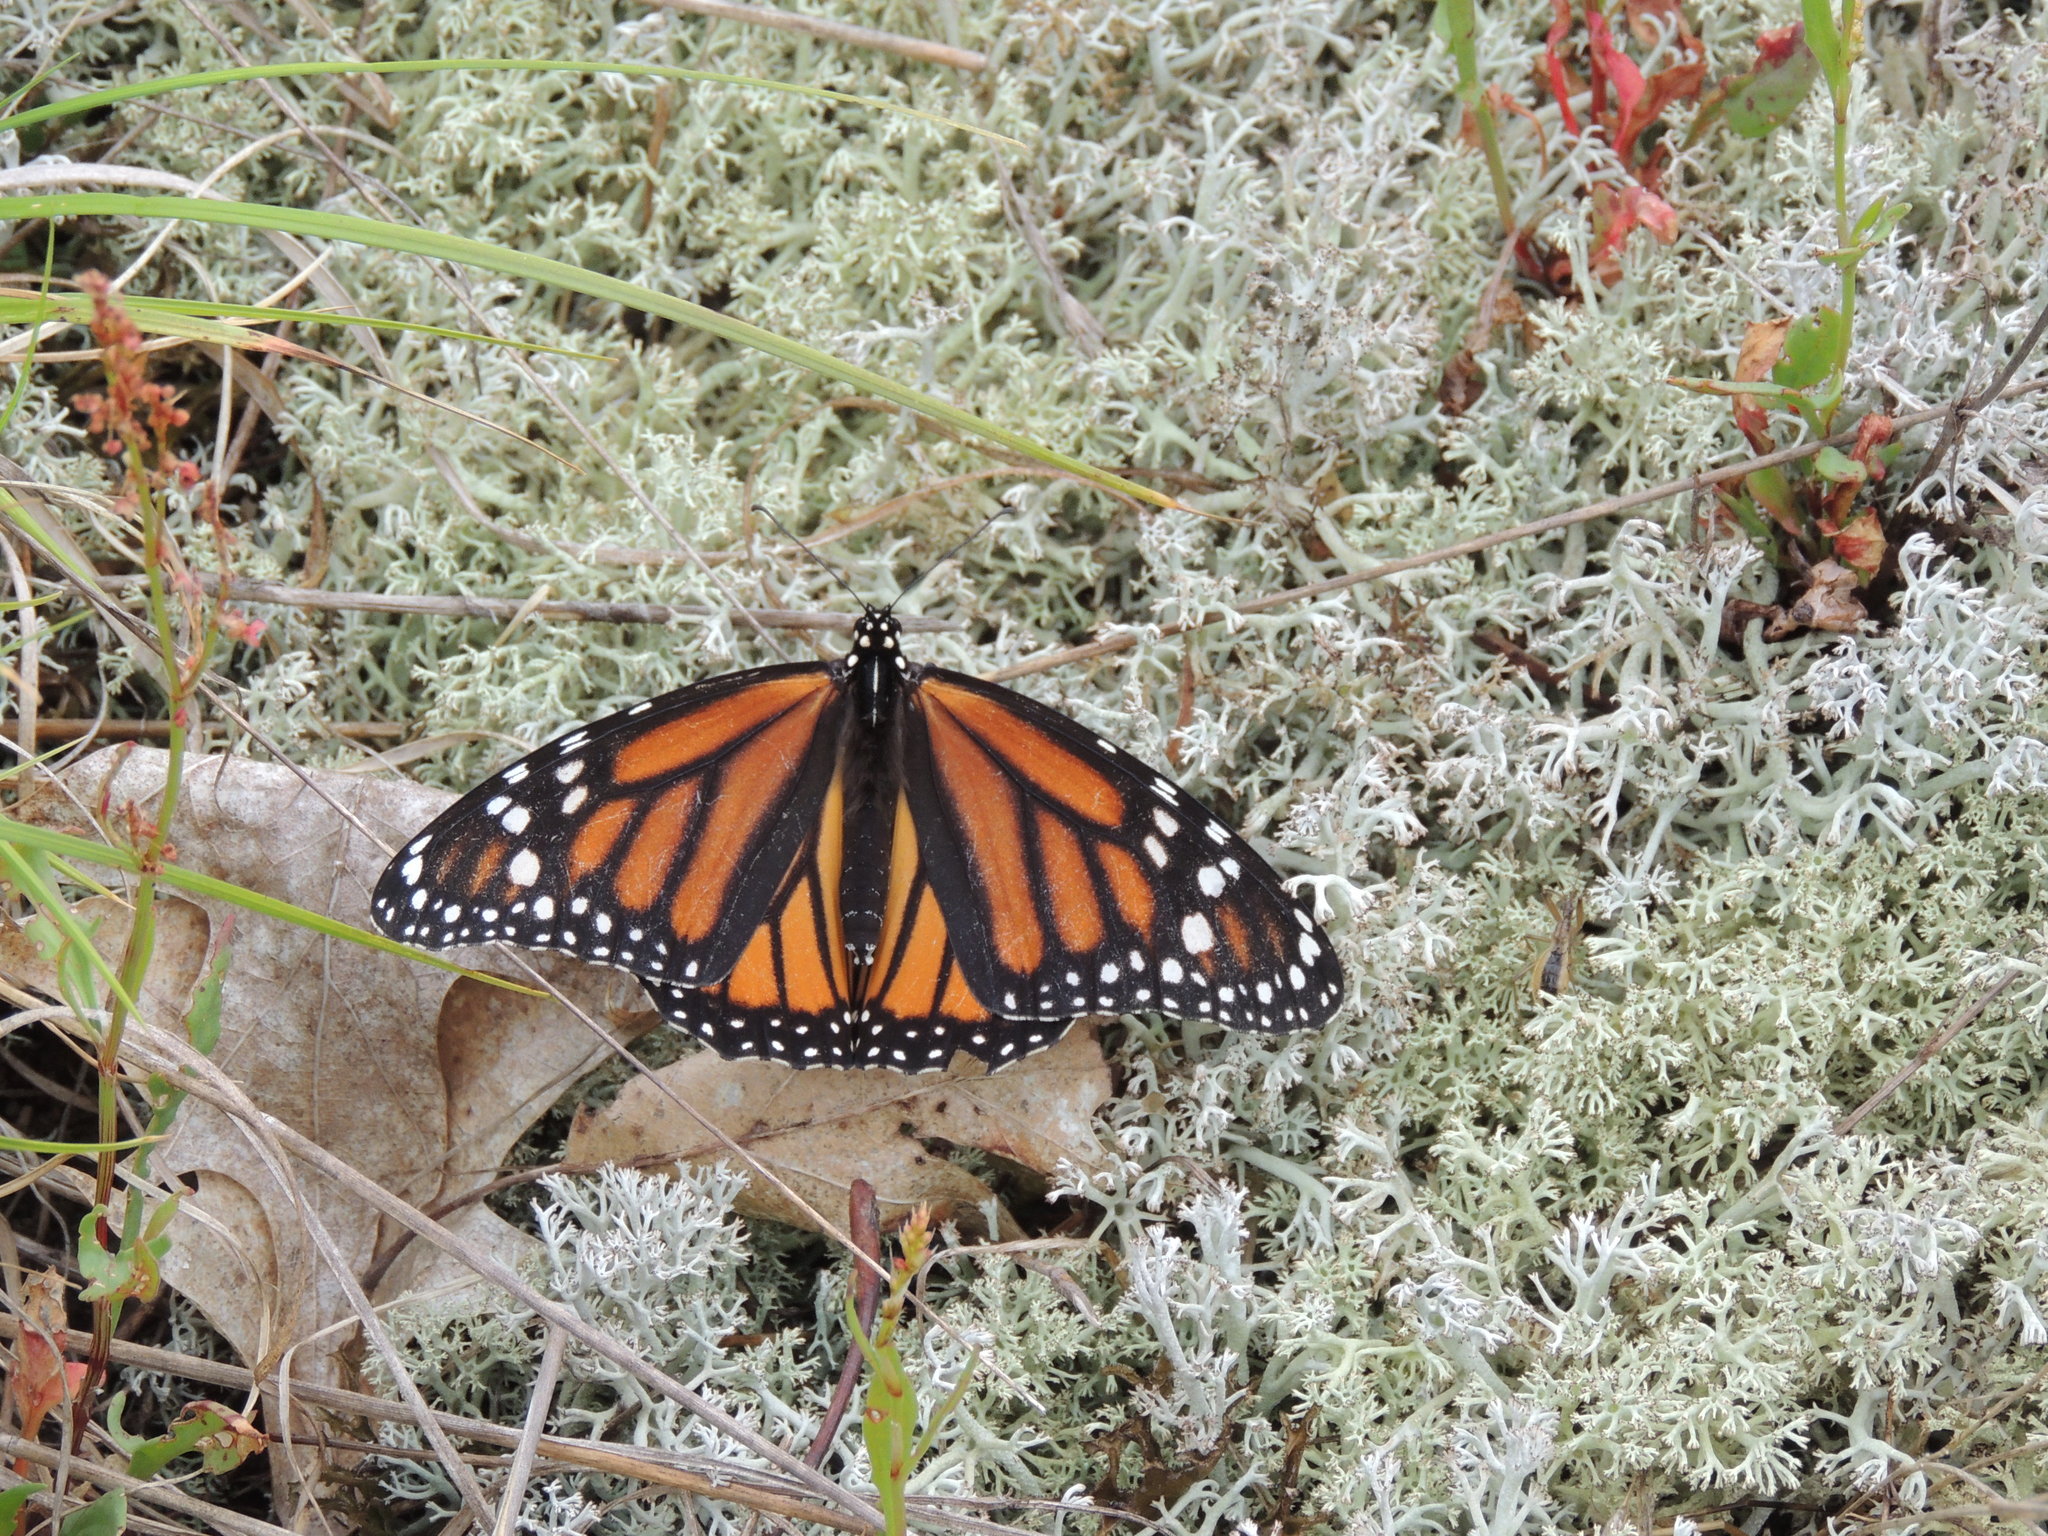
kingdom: Animalia
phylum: Arthropoda
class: Insecta
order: Lepidoptera
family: Nymphalidae
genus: Danaus
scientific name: Danaus plexippus
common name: Monarch
